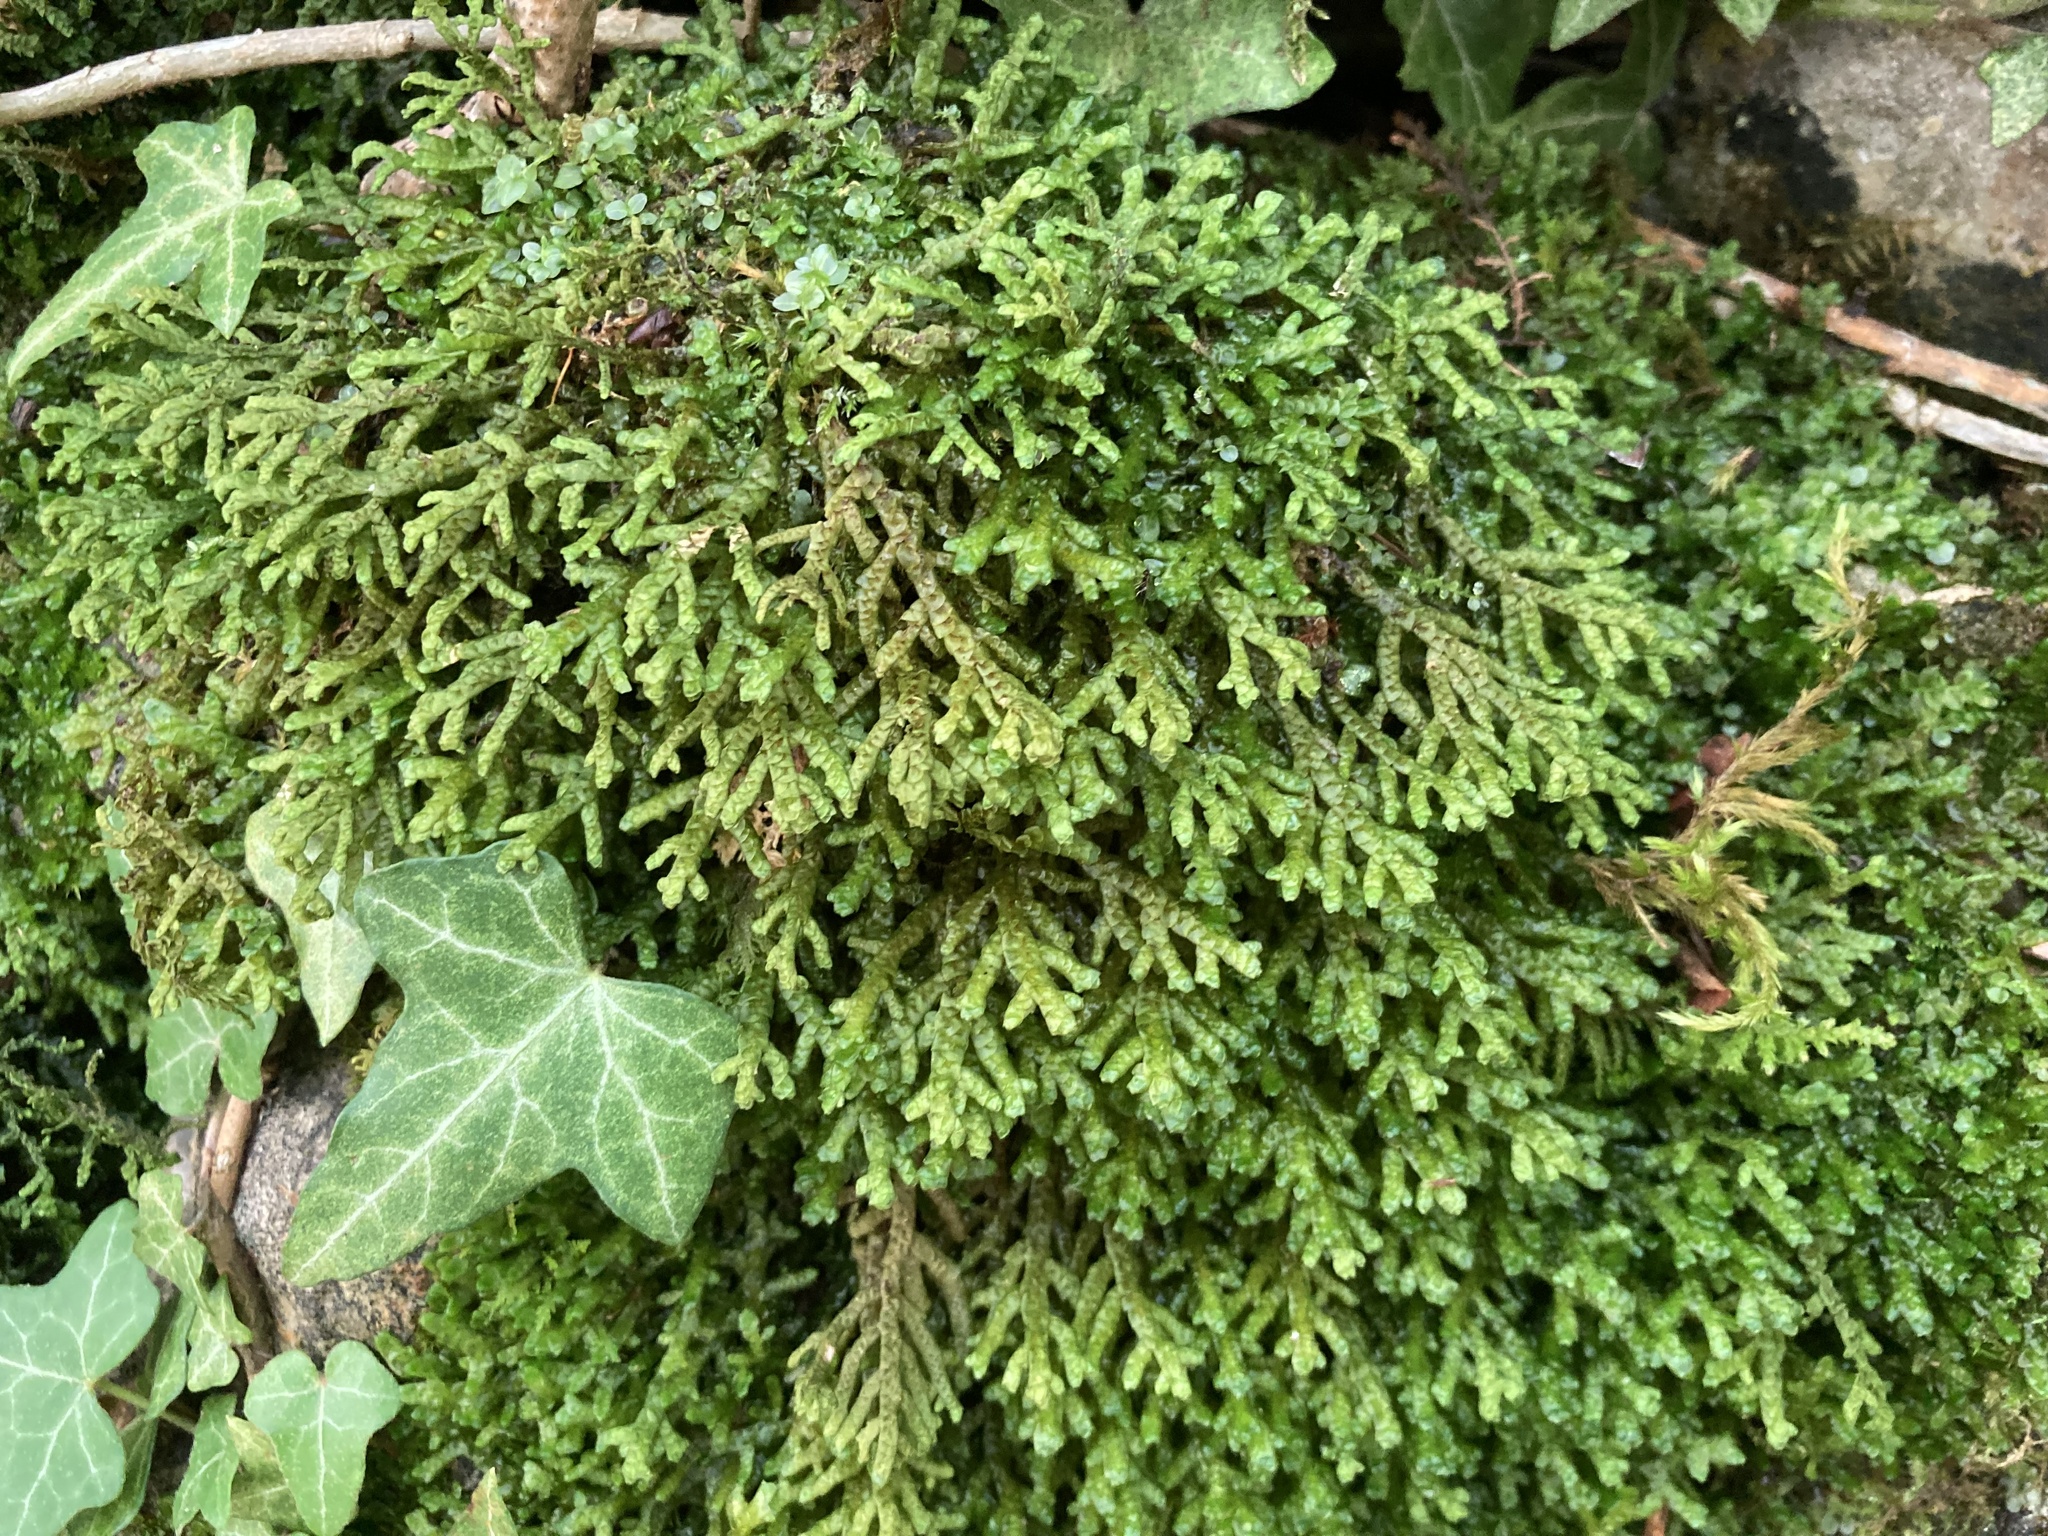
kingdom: Plantae
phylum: Marchantiophyta
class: Jungermanniopsida
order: Porellales
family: Porellaceae
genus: Porella
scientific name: Porella platyphylla
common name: Wall scalewort
